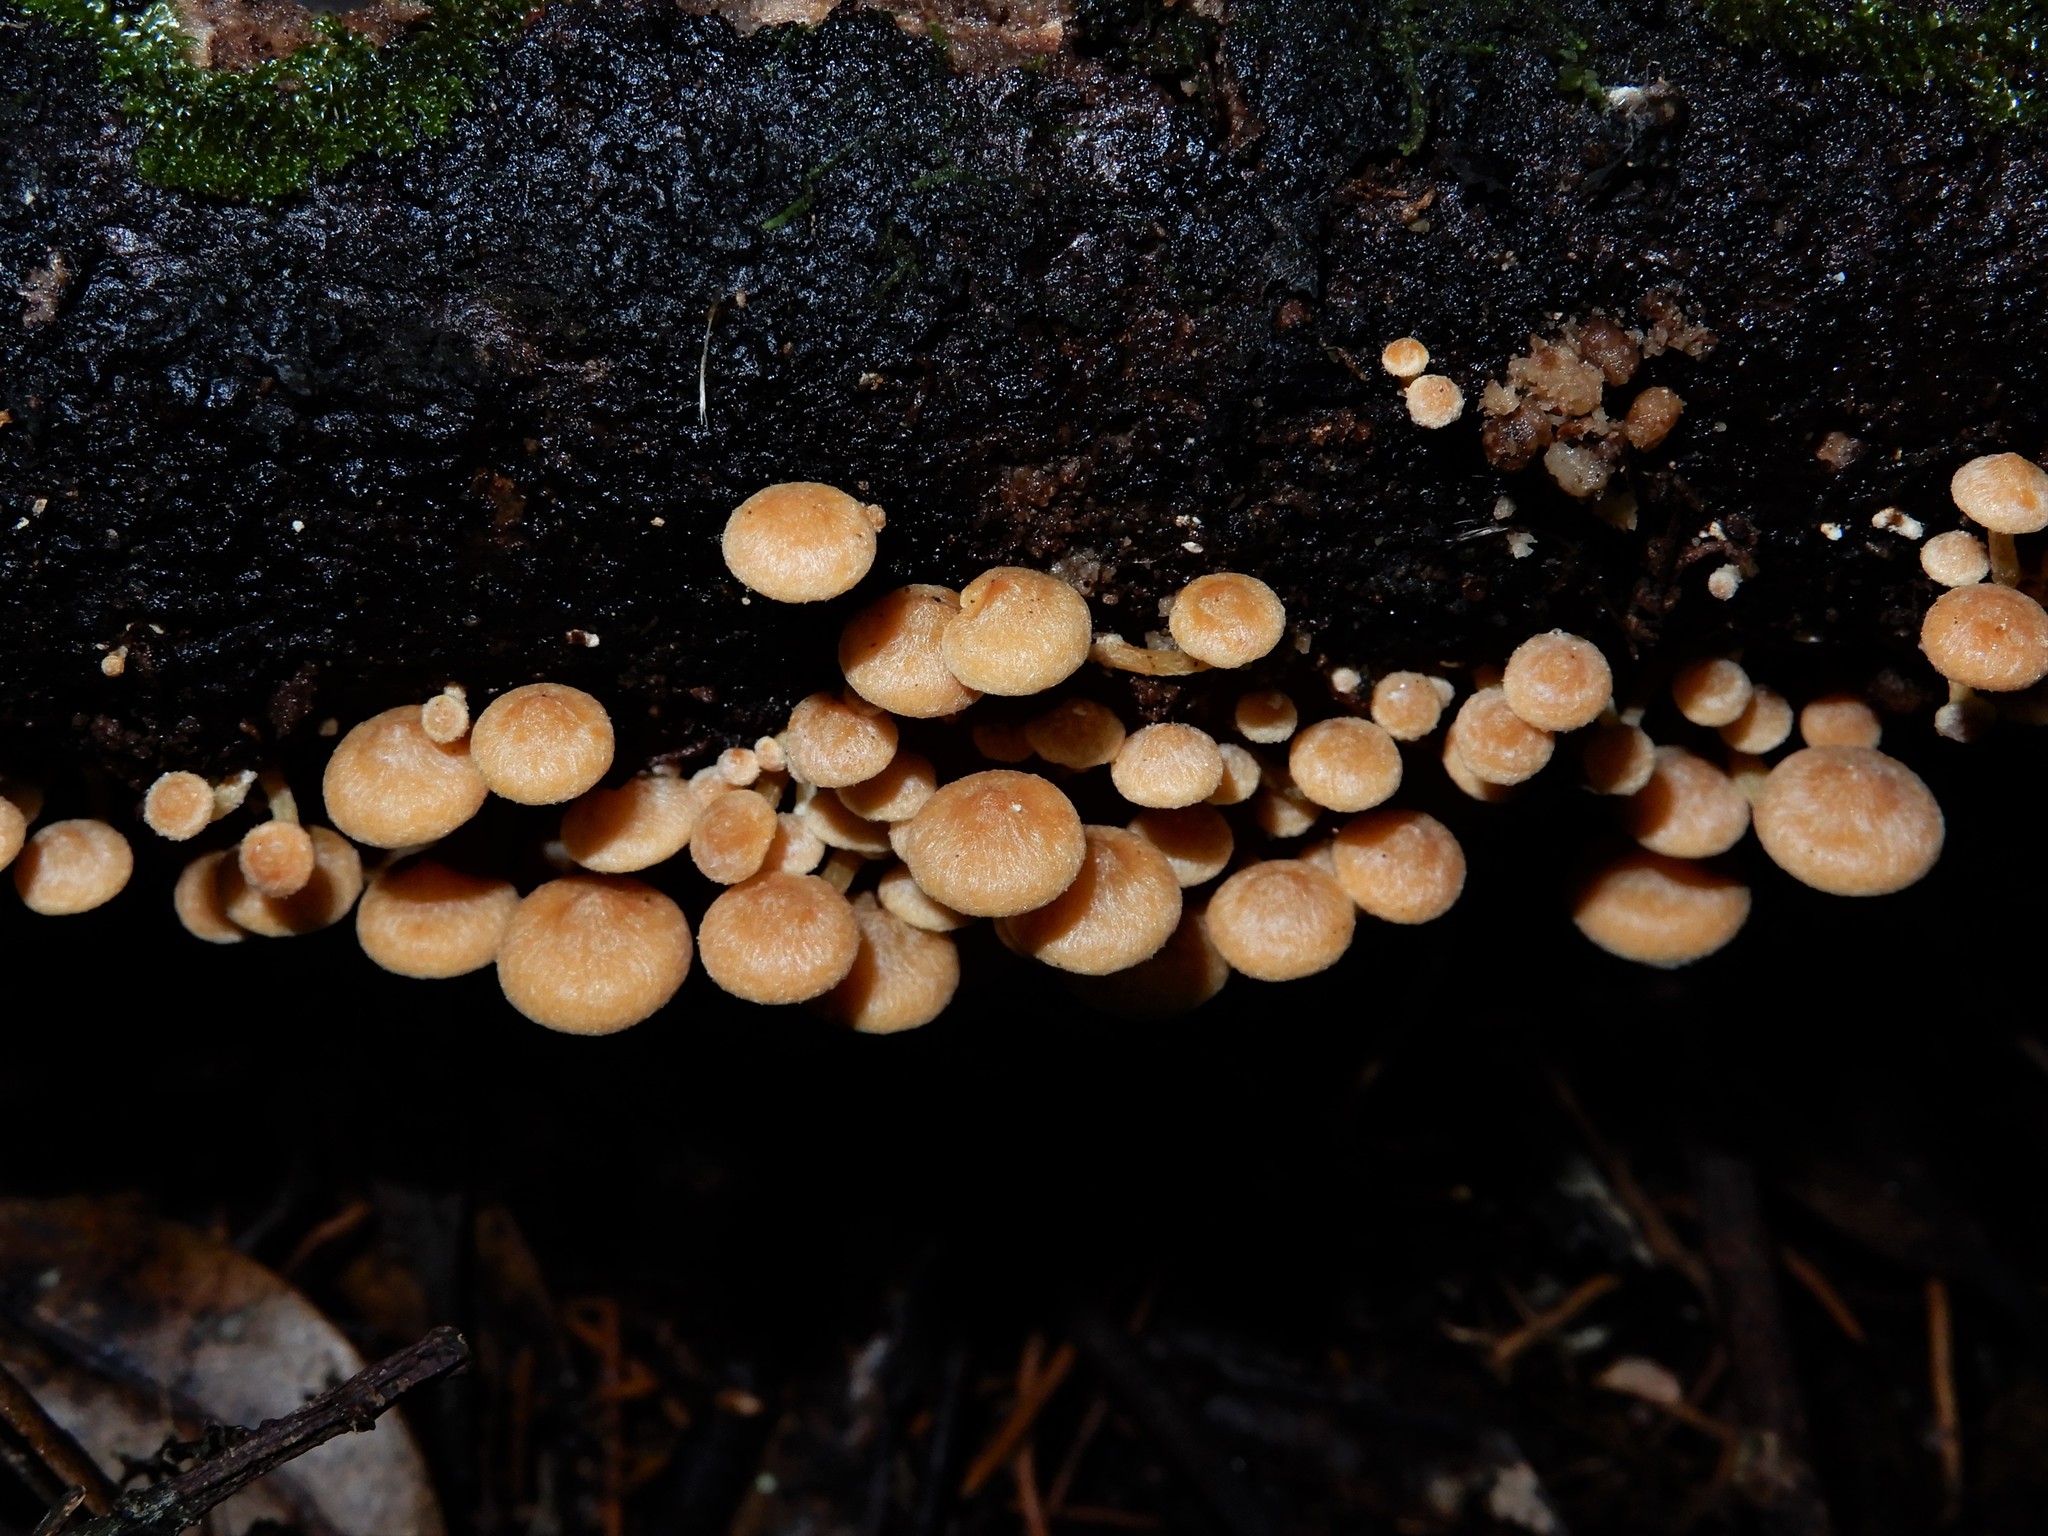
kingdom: Fungi
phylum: Basidiomycota
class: Agaricomycetes
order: Agaricales
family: Strophariaceae
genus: Hypholoma
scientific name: Hypholoma acutum
